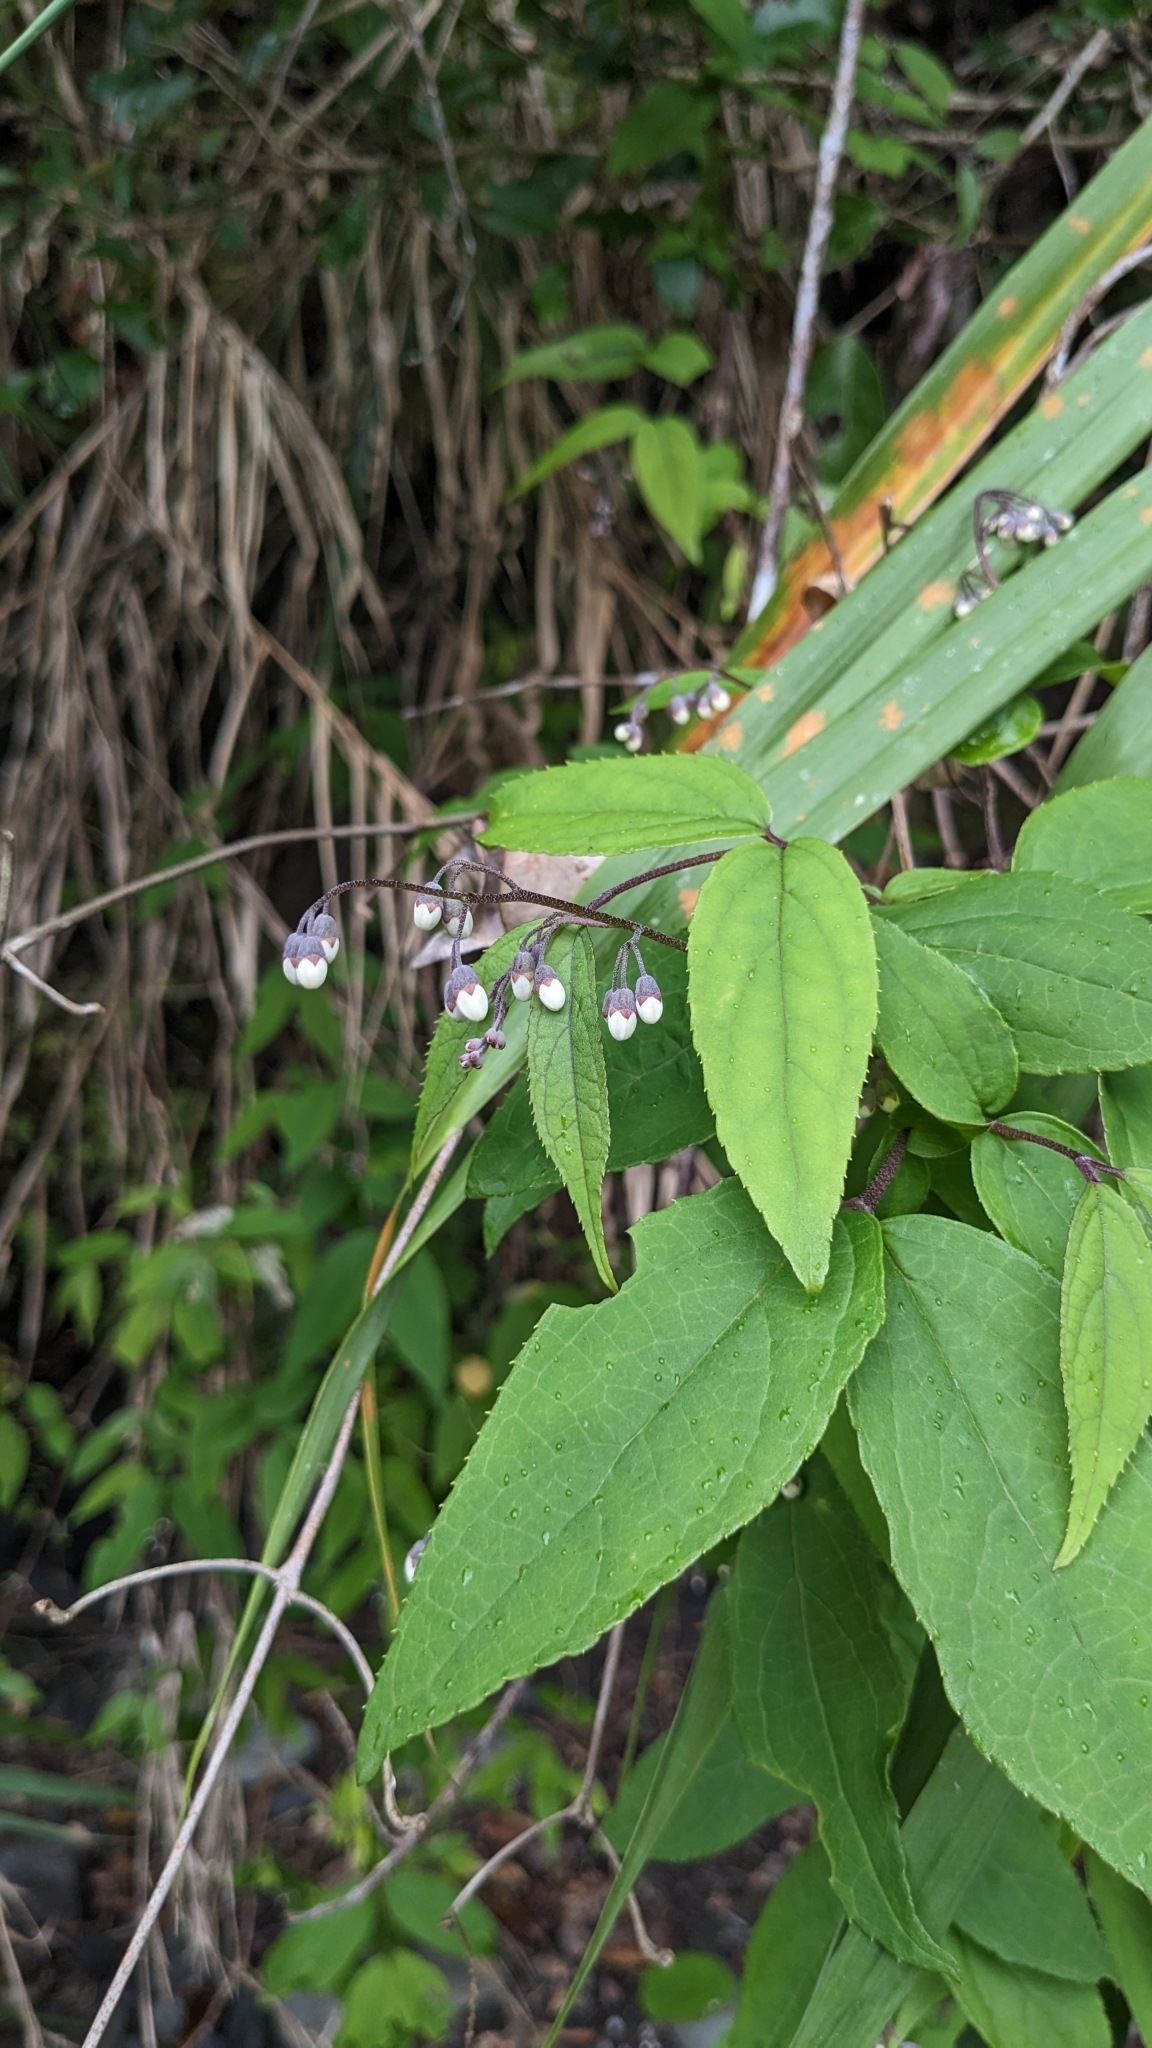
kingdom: Plantae
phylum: Tracheophyta
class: Magnoliopsida
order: Cornales
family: Hydrangeaceae
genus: Deutzia
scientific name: Deutzia taiwanensis
